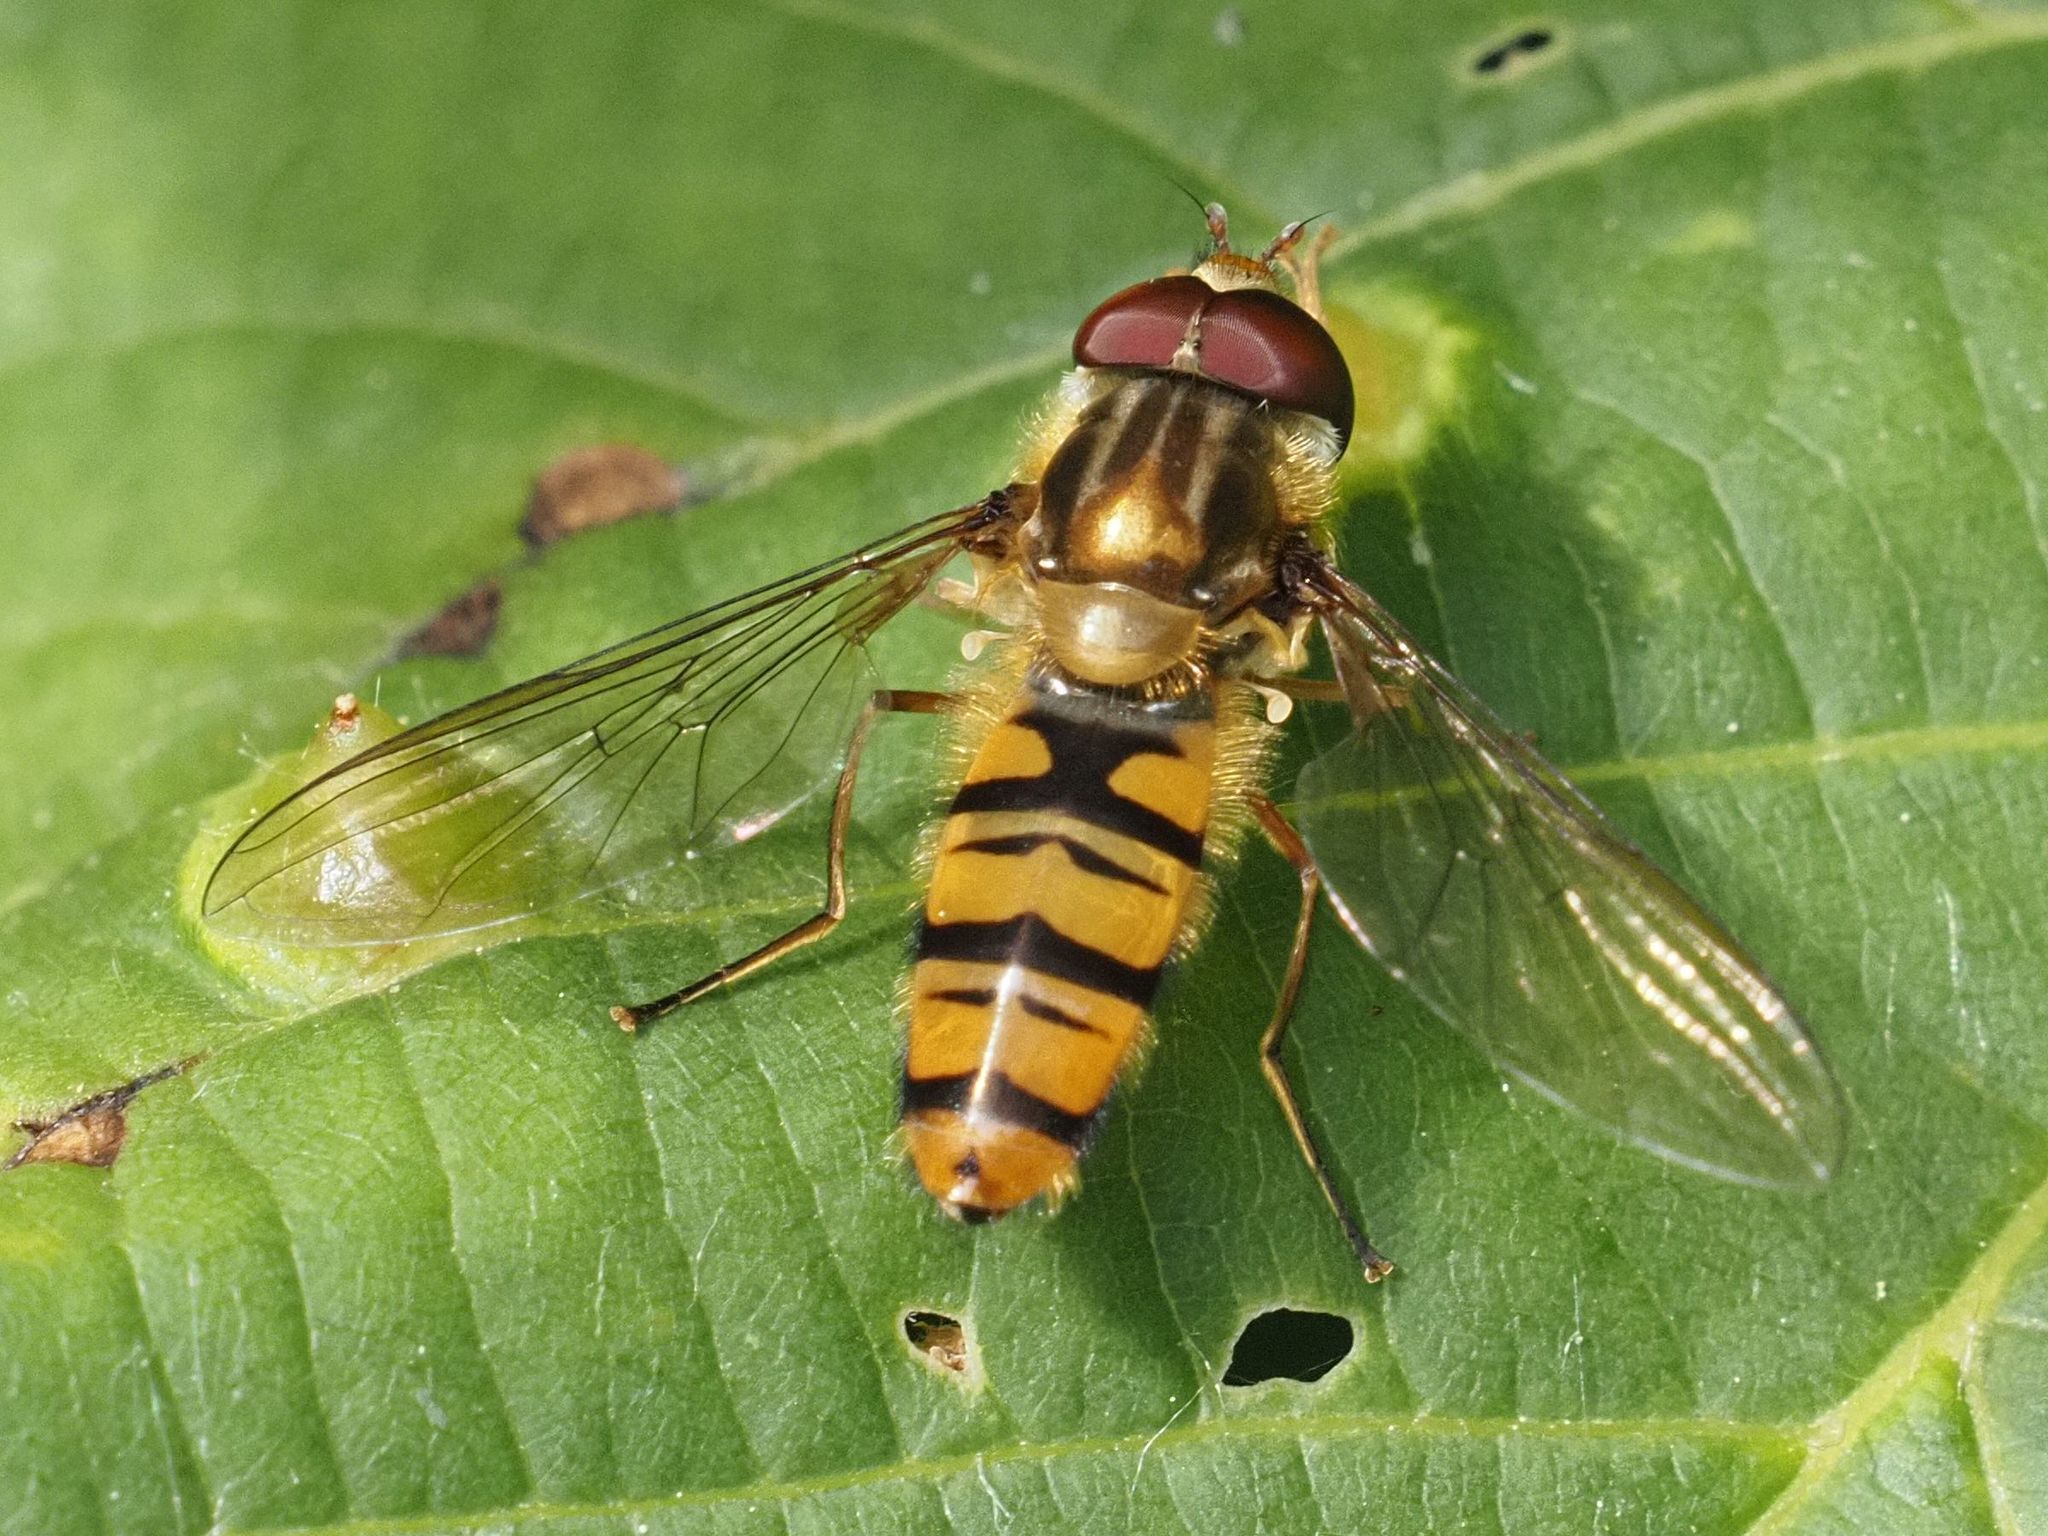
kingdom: Animalia
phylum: Arthropoda
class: Insecta
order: Diptera
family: Syrphidae
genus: Episyrphus
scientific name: Episyrphus balteatus
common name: Marmalade hoverfly
